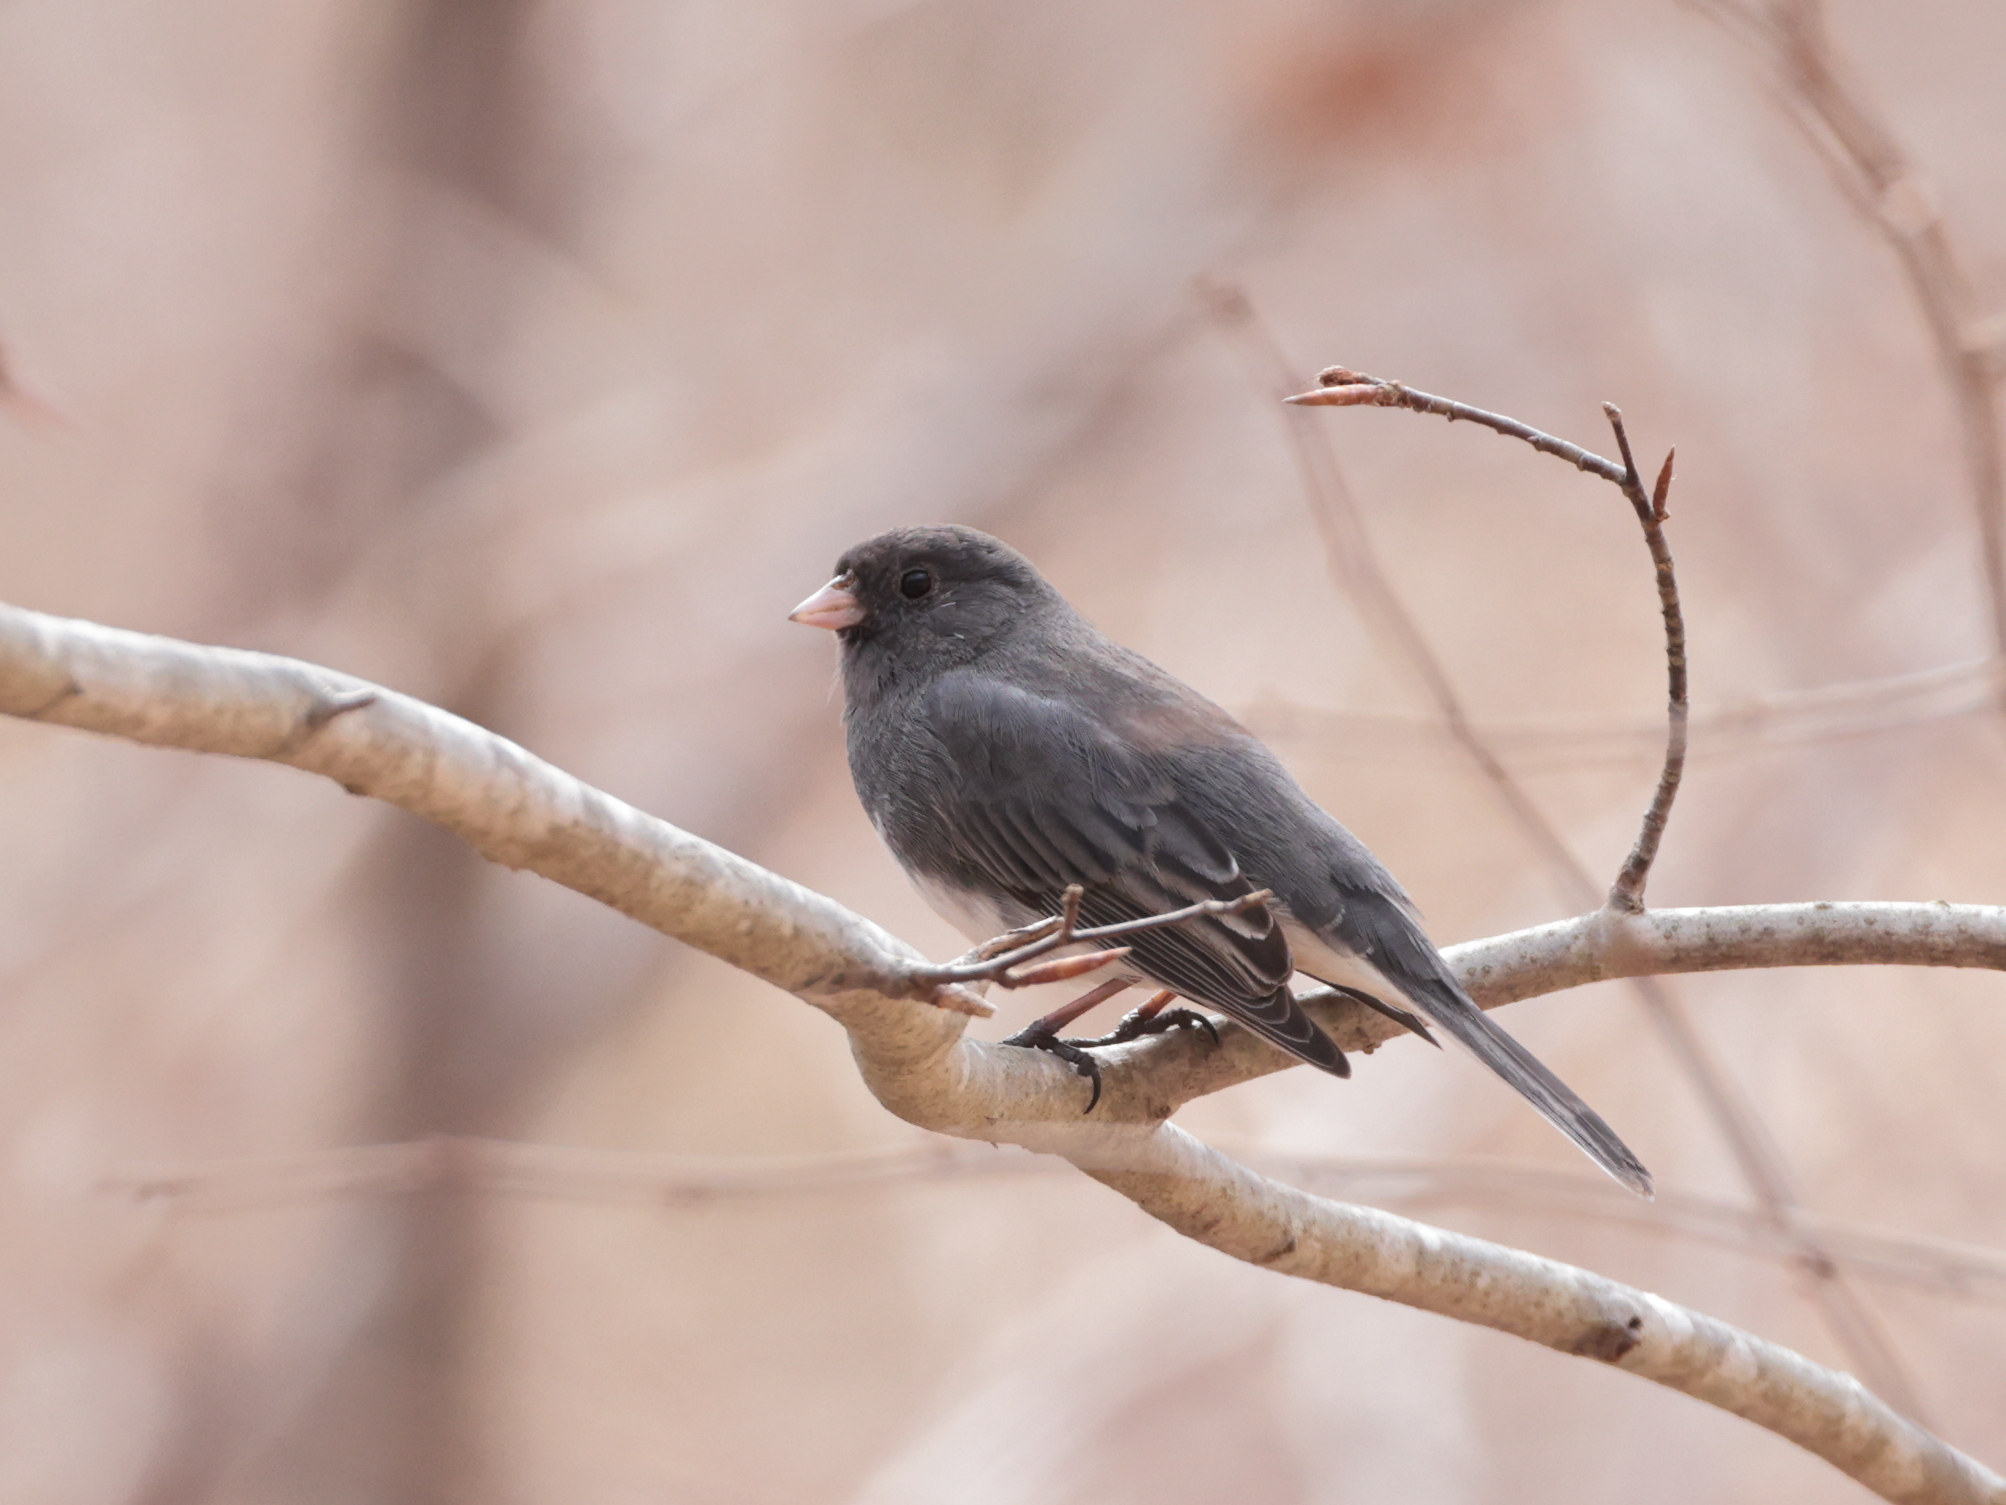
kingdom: Animalia
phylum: Chordata
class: Aves
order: Passeriformes
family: Passerellidae
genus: Junco
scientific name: Junco hyemalis
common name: Dark-eyed junco
